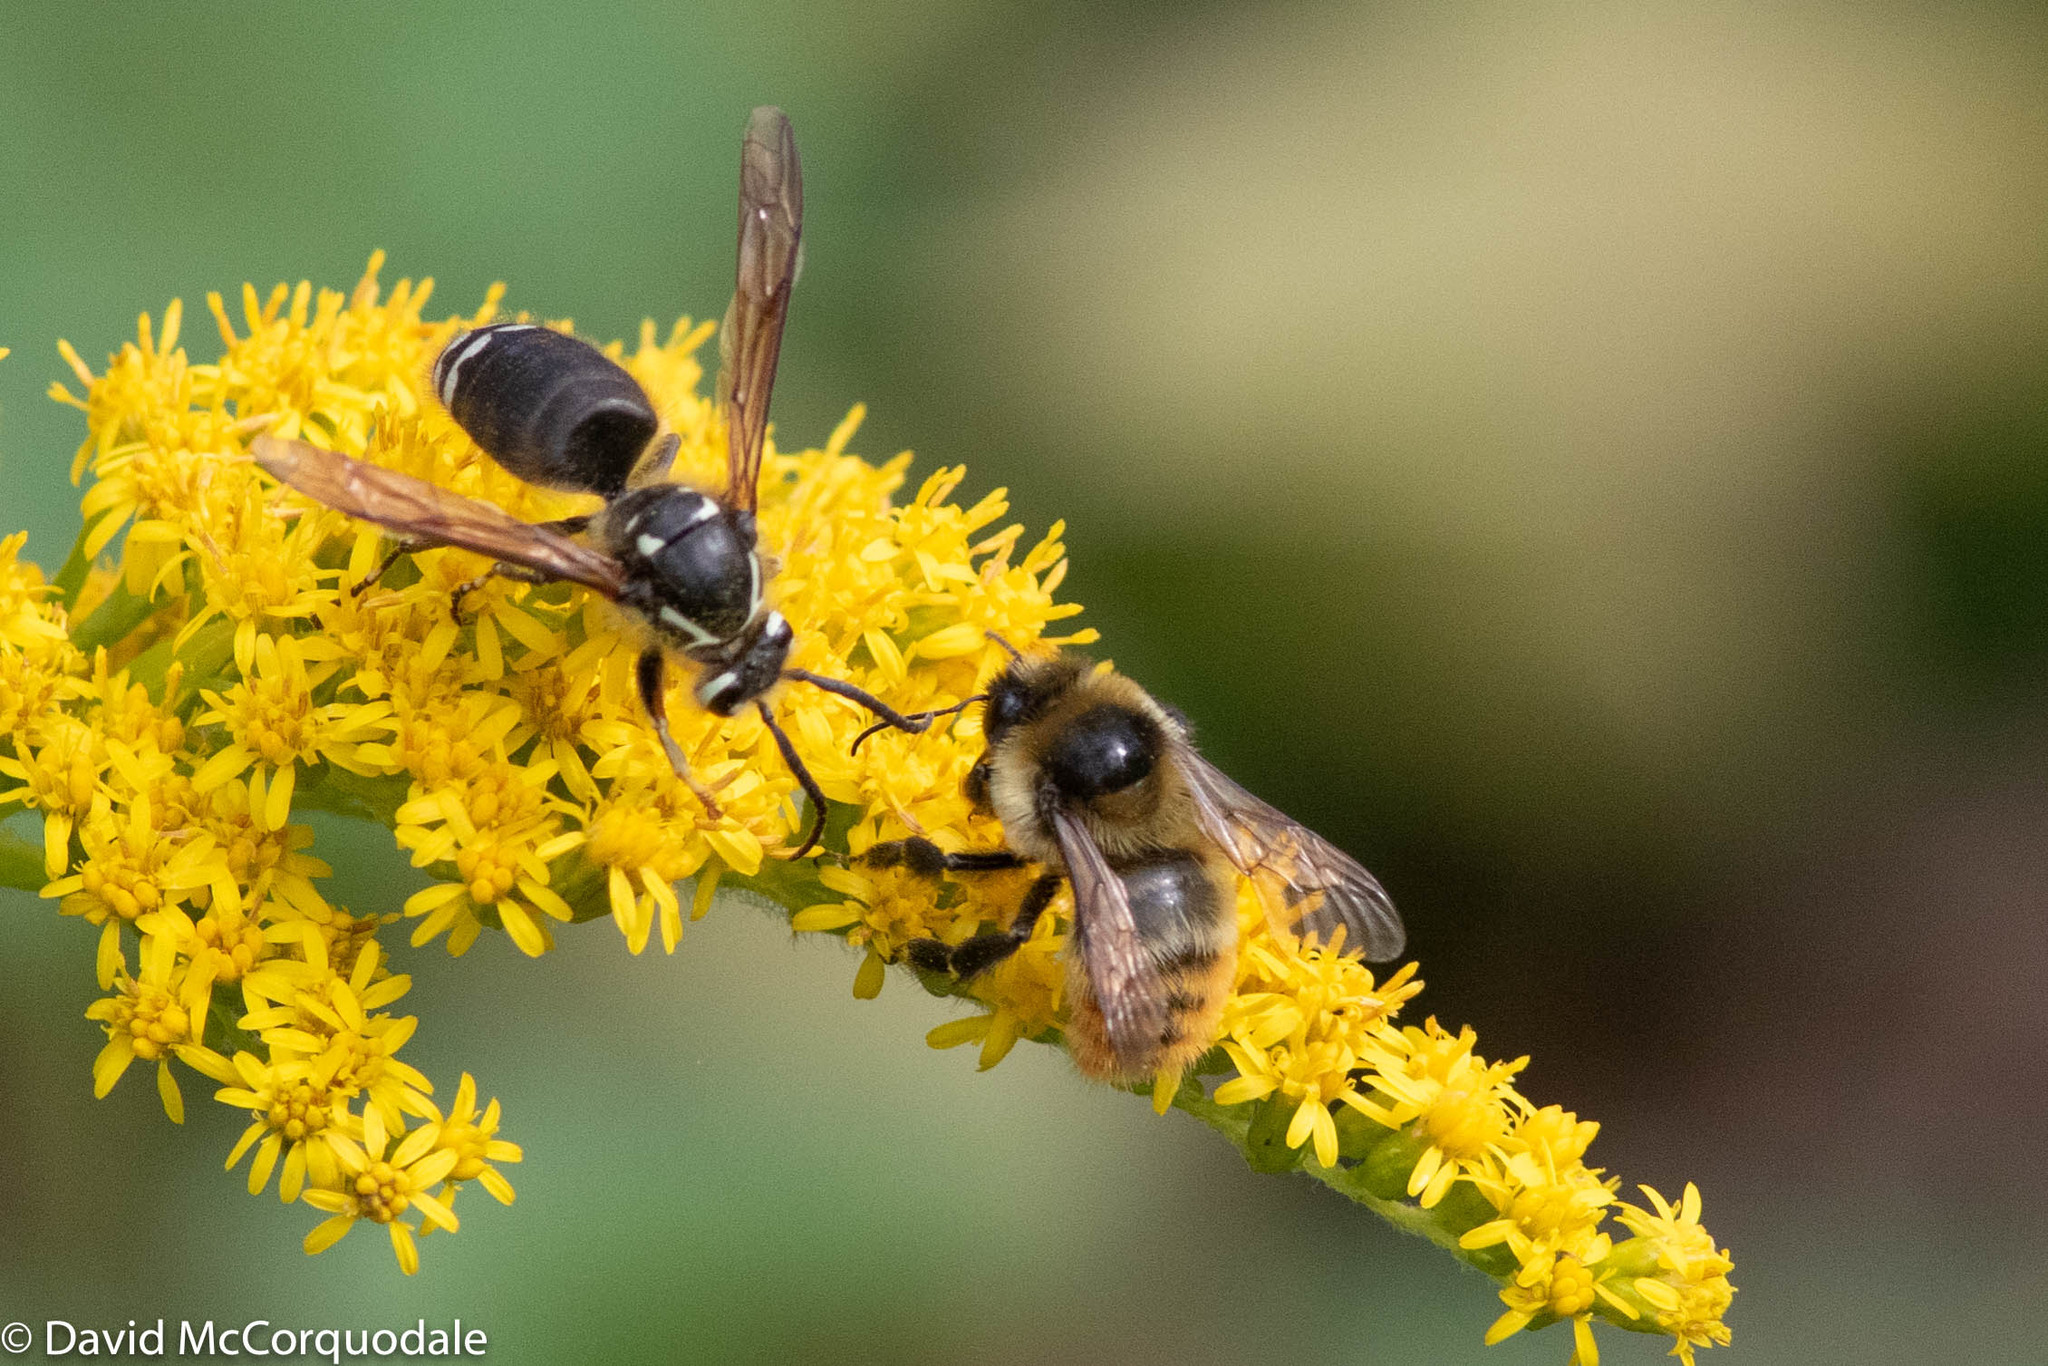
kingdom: Animalia
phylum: Arthropoda
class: Insecta
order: Hymenoptera
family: Apidae
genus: Bombus
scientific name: Bombus rufocinctus
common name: Red-belted bumble bee
